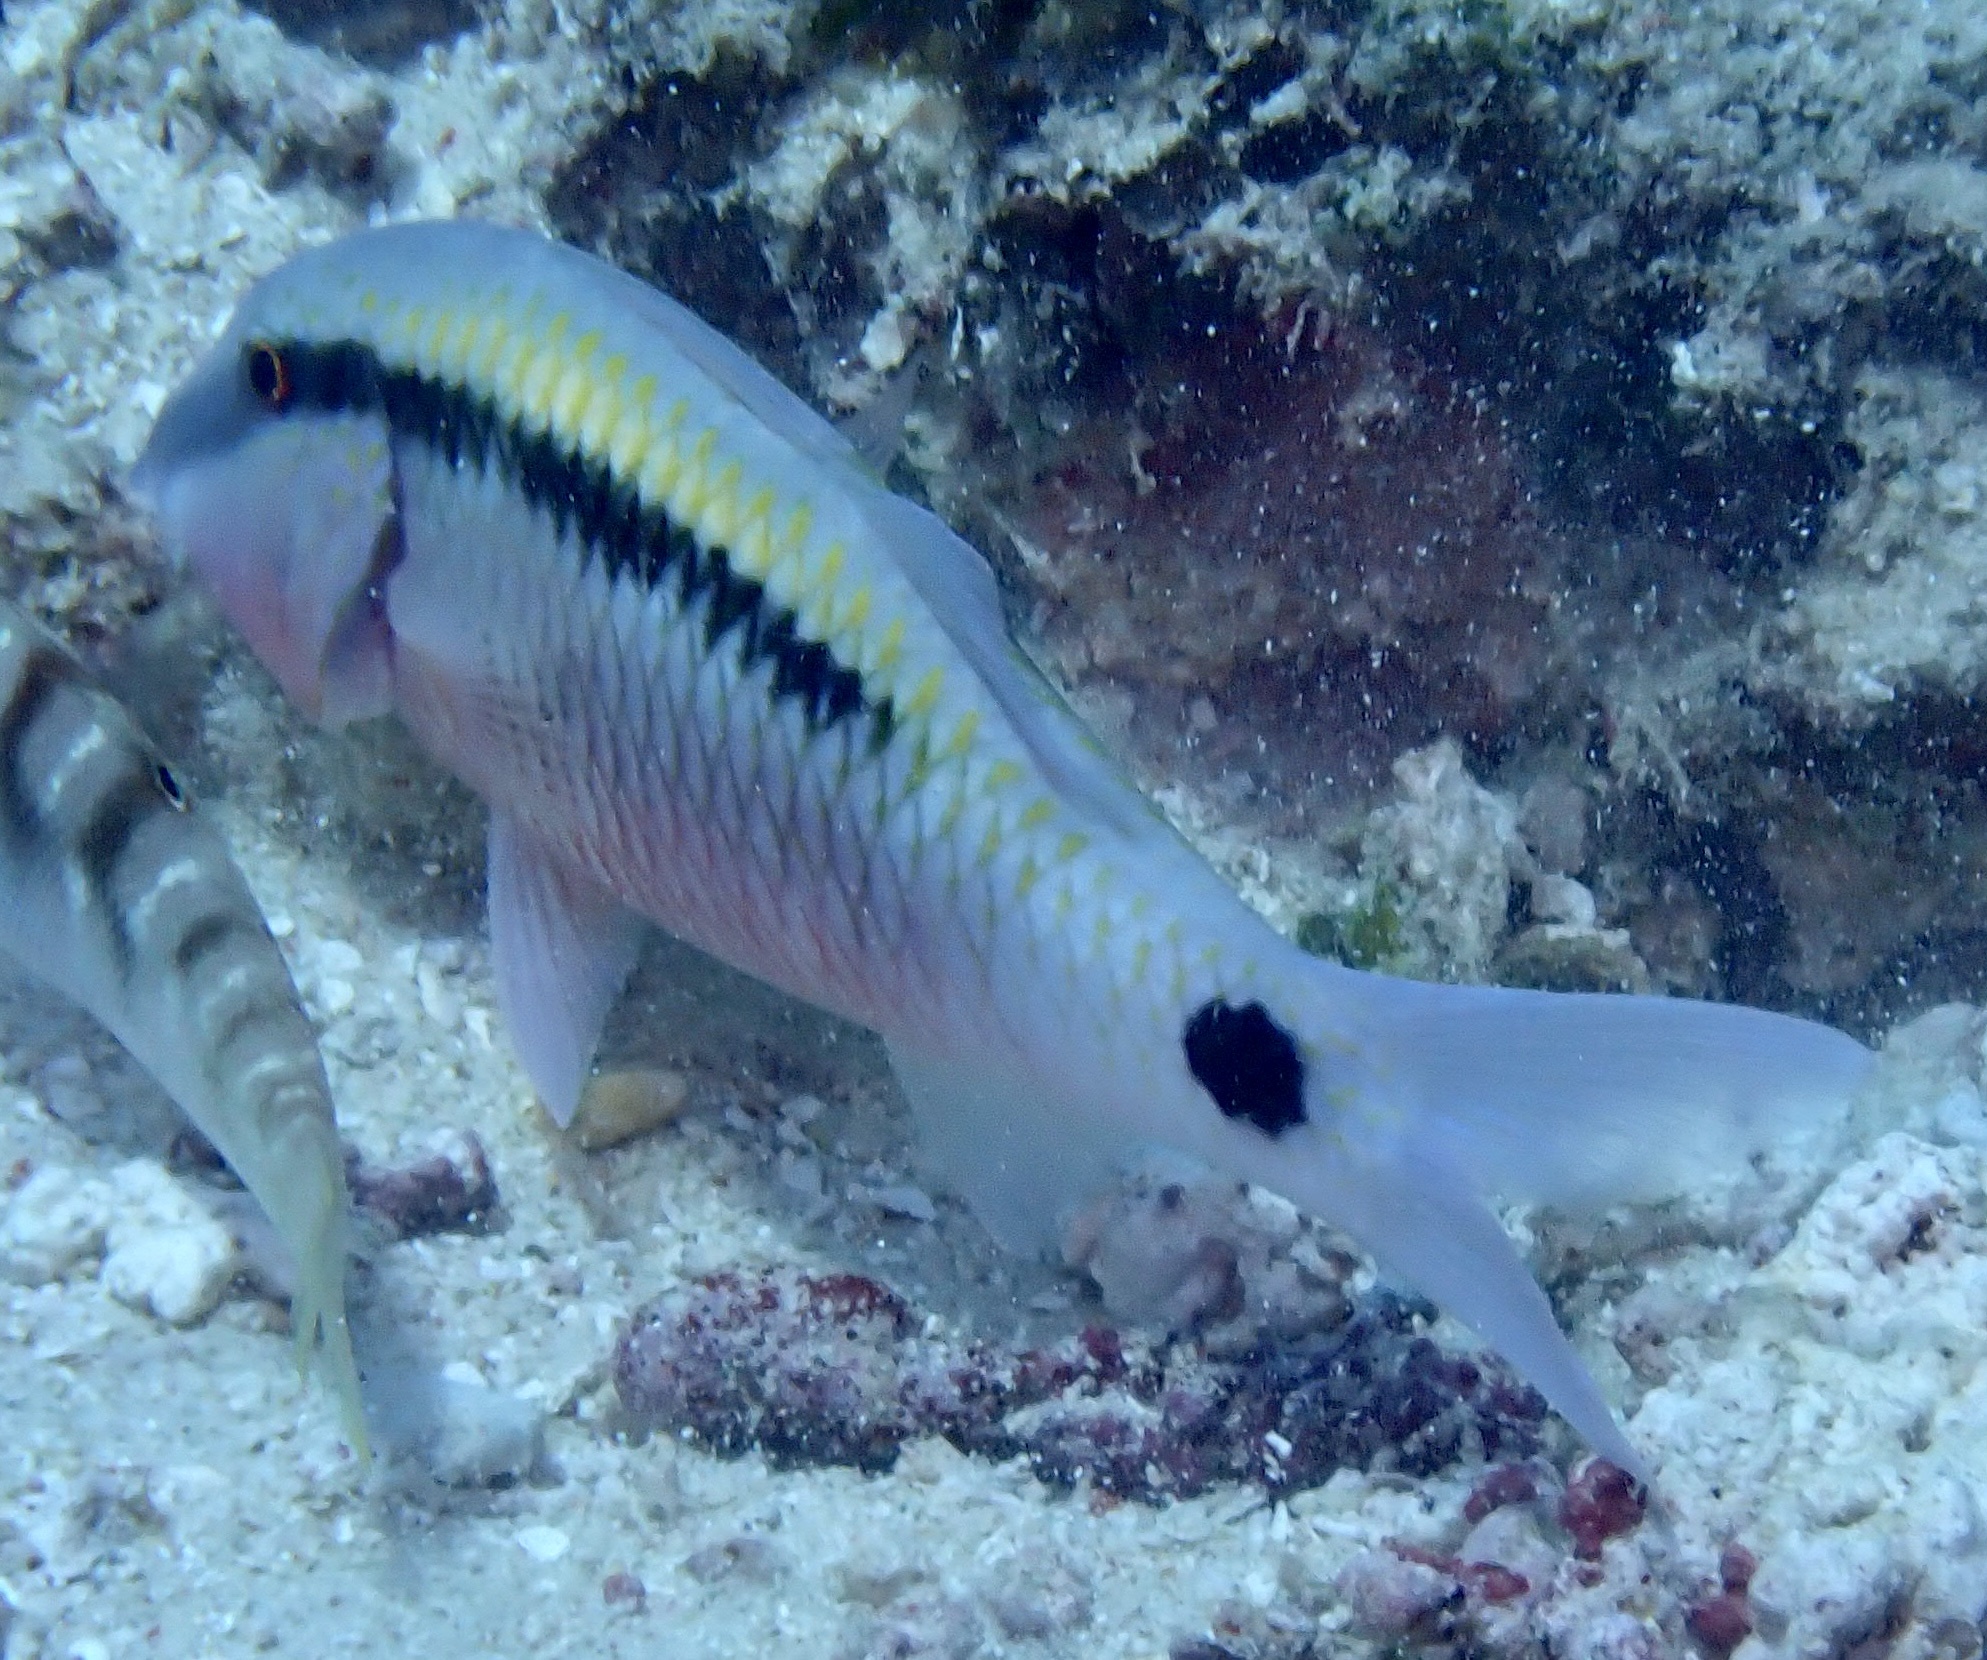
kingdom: Animalia
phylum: Chordata
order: Perciformes
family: Mullidae
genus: Parupeneus
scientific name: Parupeneus barberinus
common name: Dash-and-dot goatfish
